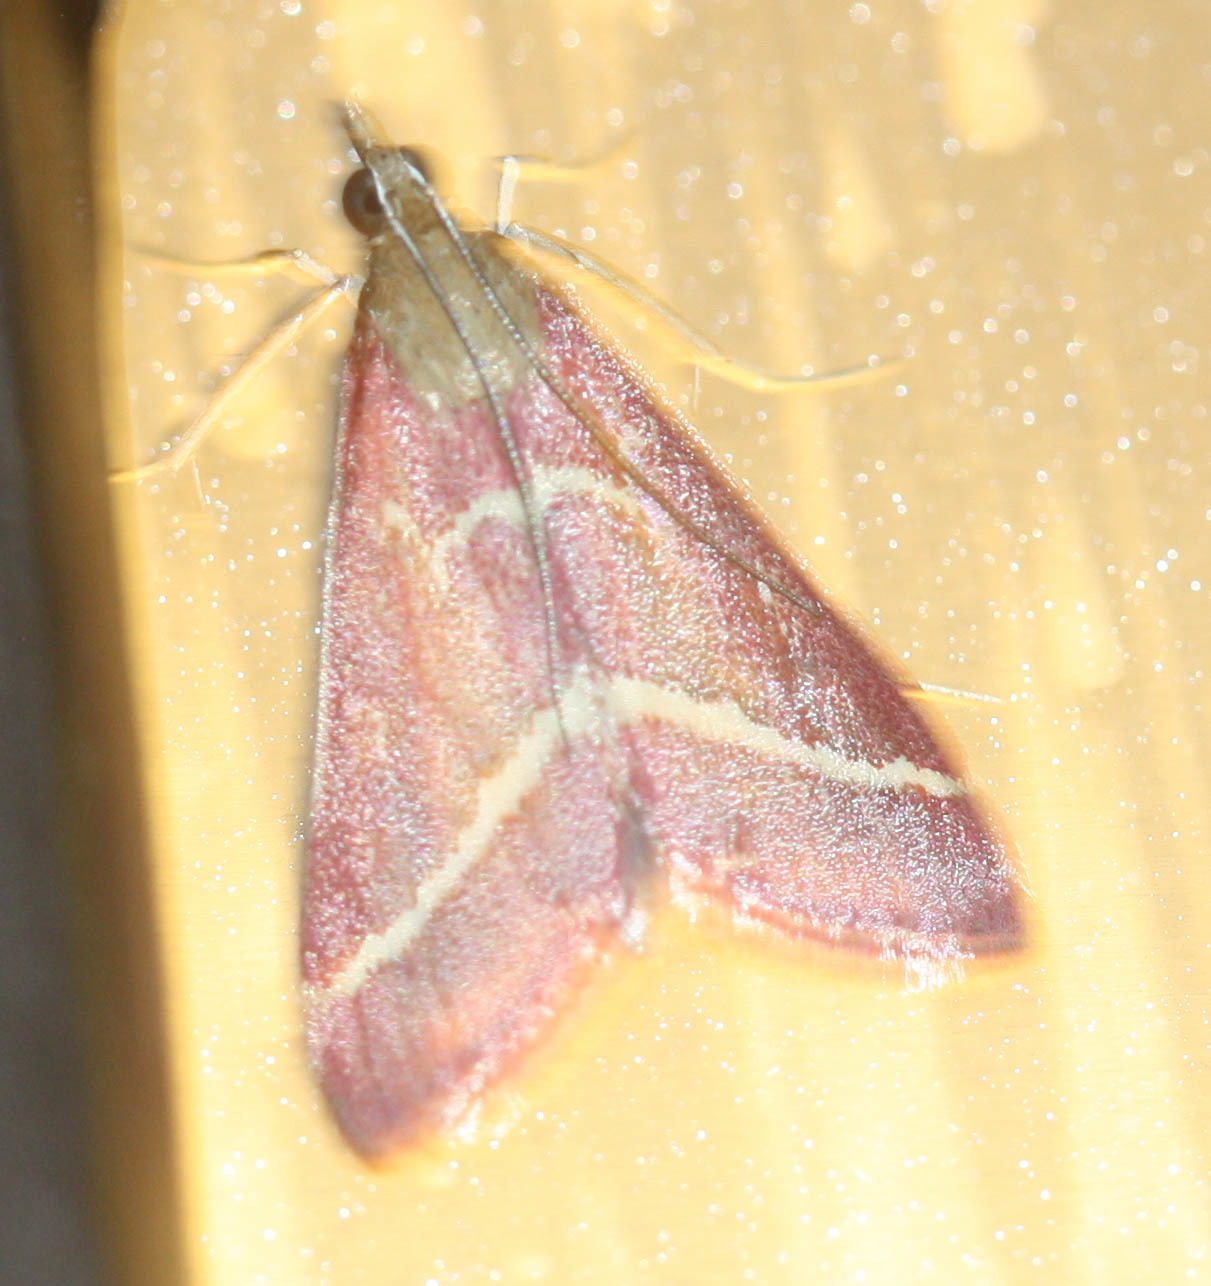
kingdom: Animalia
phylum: Arthropoda
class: Insecta
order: Lepidoptera
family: Crambidae
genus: Pyrausta
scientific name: Pyrausta volupialis
